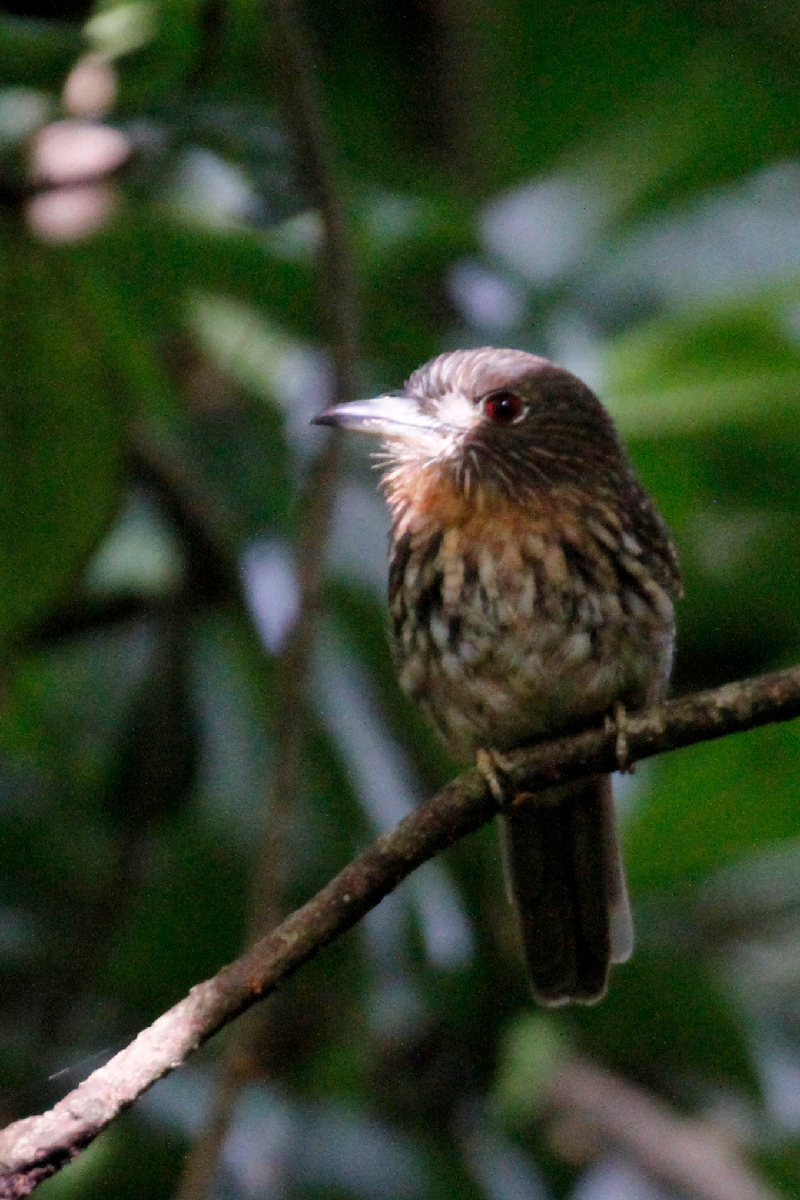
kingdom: Animalia
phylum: Chordata
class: Aves
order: Piciformes
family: Bucconidae
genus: Malacoptila
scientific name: Malacoptila panamensis
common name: White-whiskered puffbird
